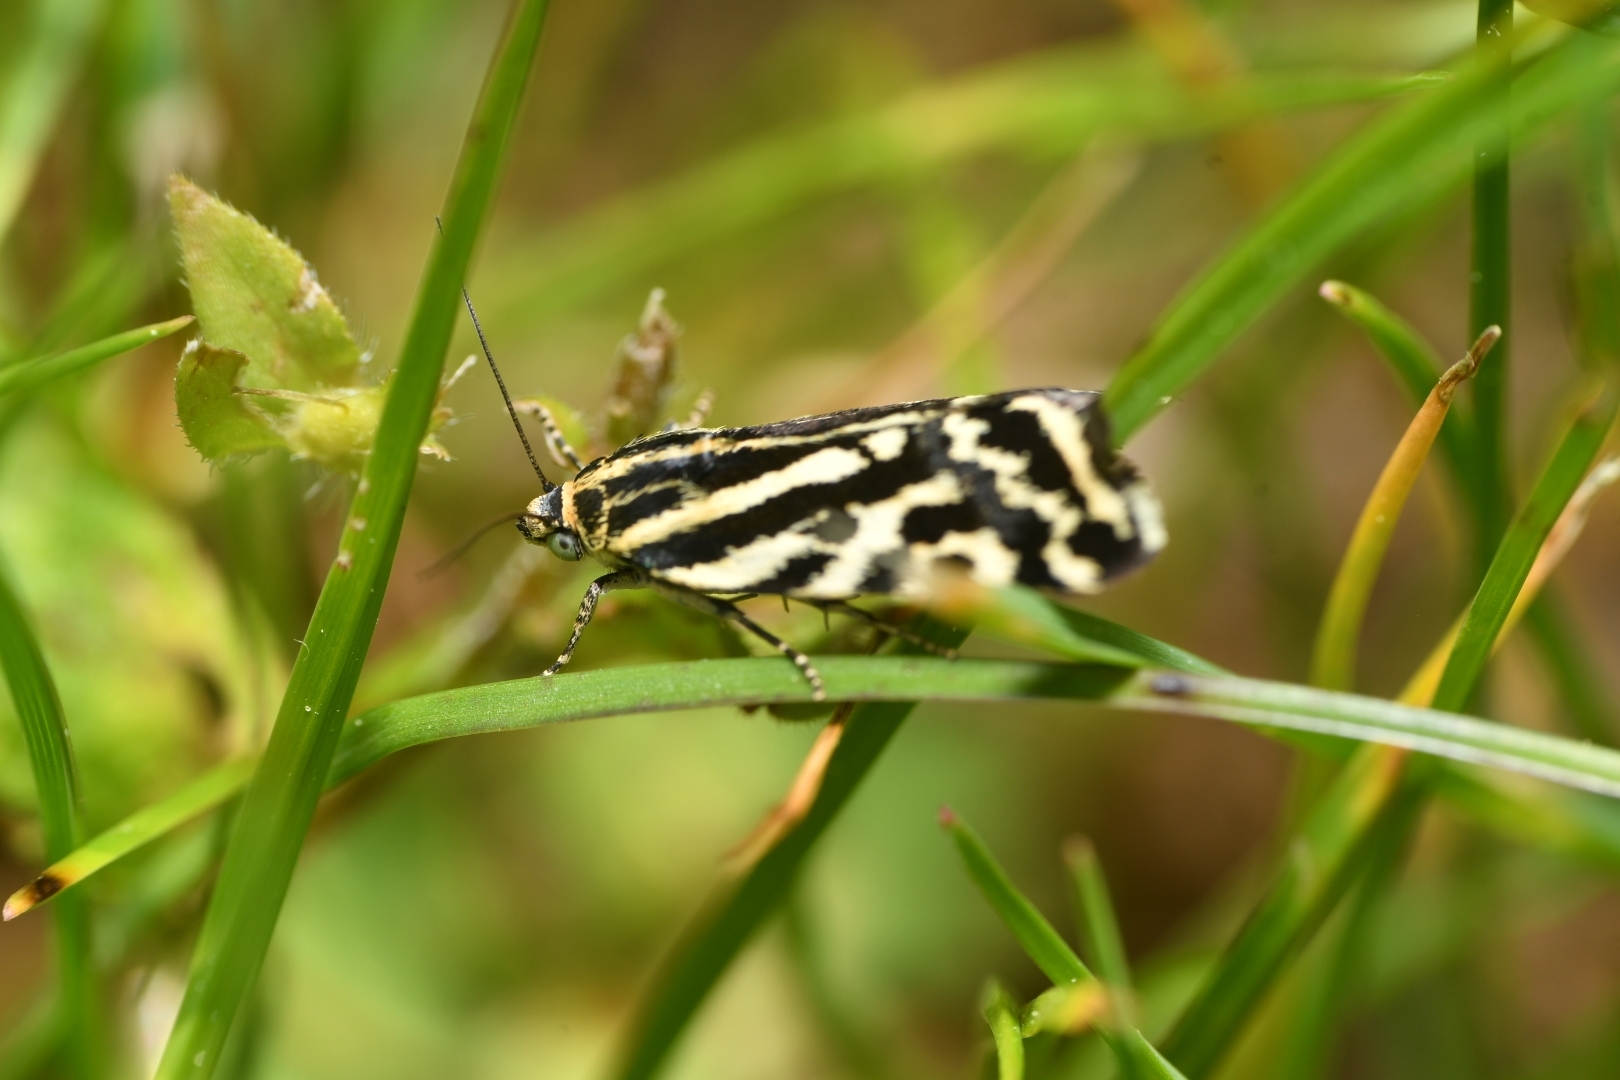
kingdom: Animalia
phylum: Arthropoda
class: Insecta
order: Lepidoptera
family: Noctuidae
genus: Acontia
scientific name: Acontia trabealis
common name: Spotted sulphur
